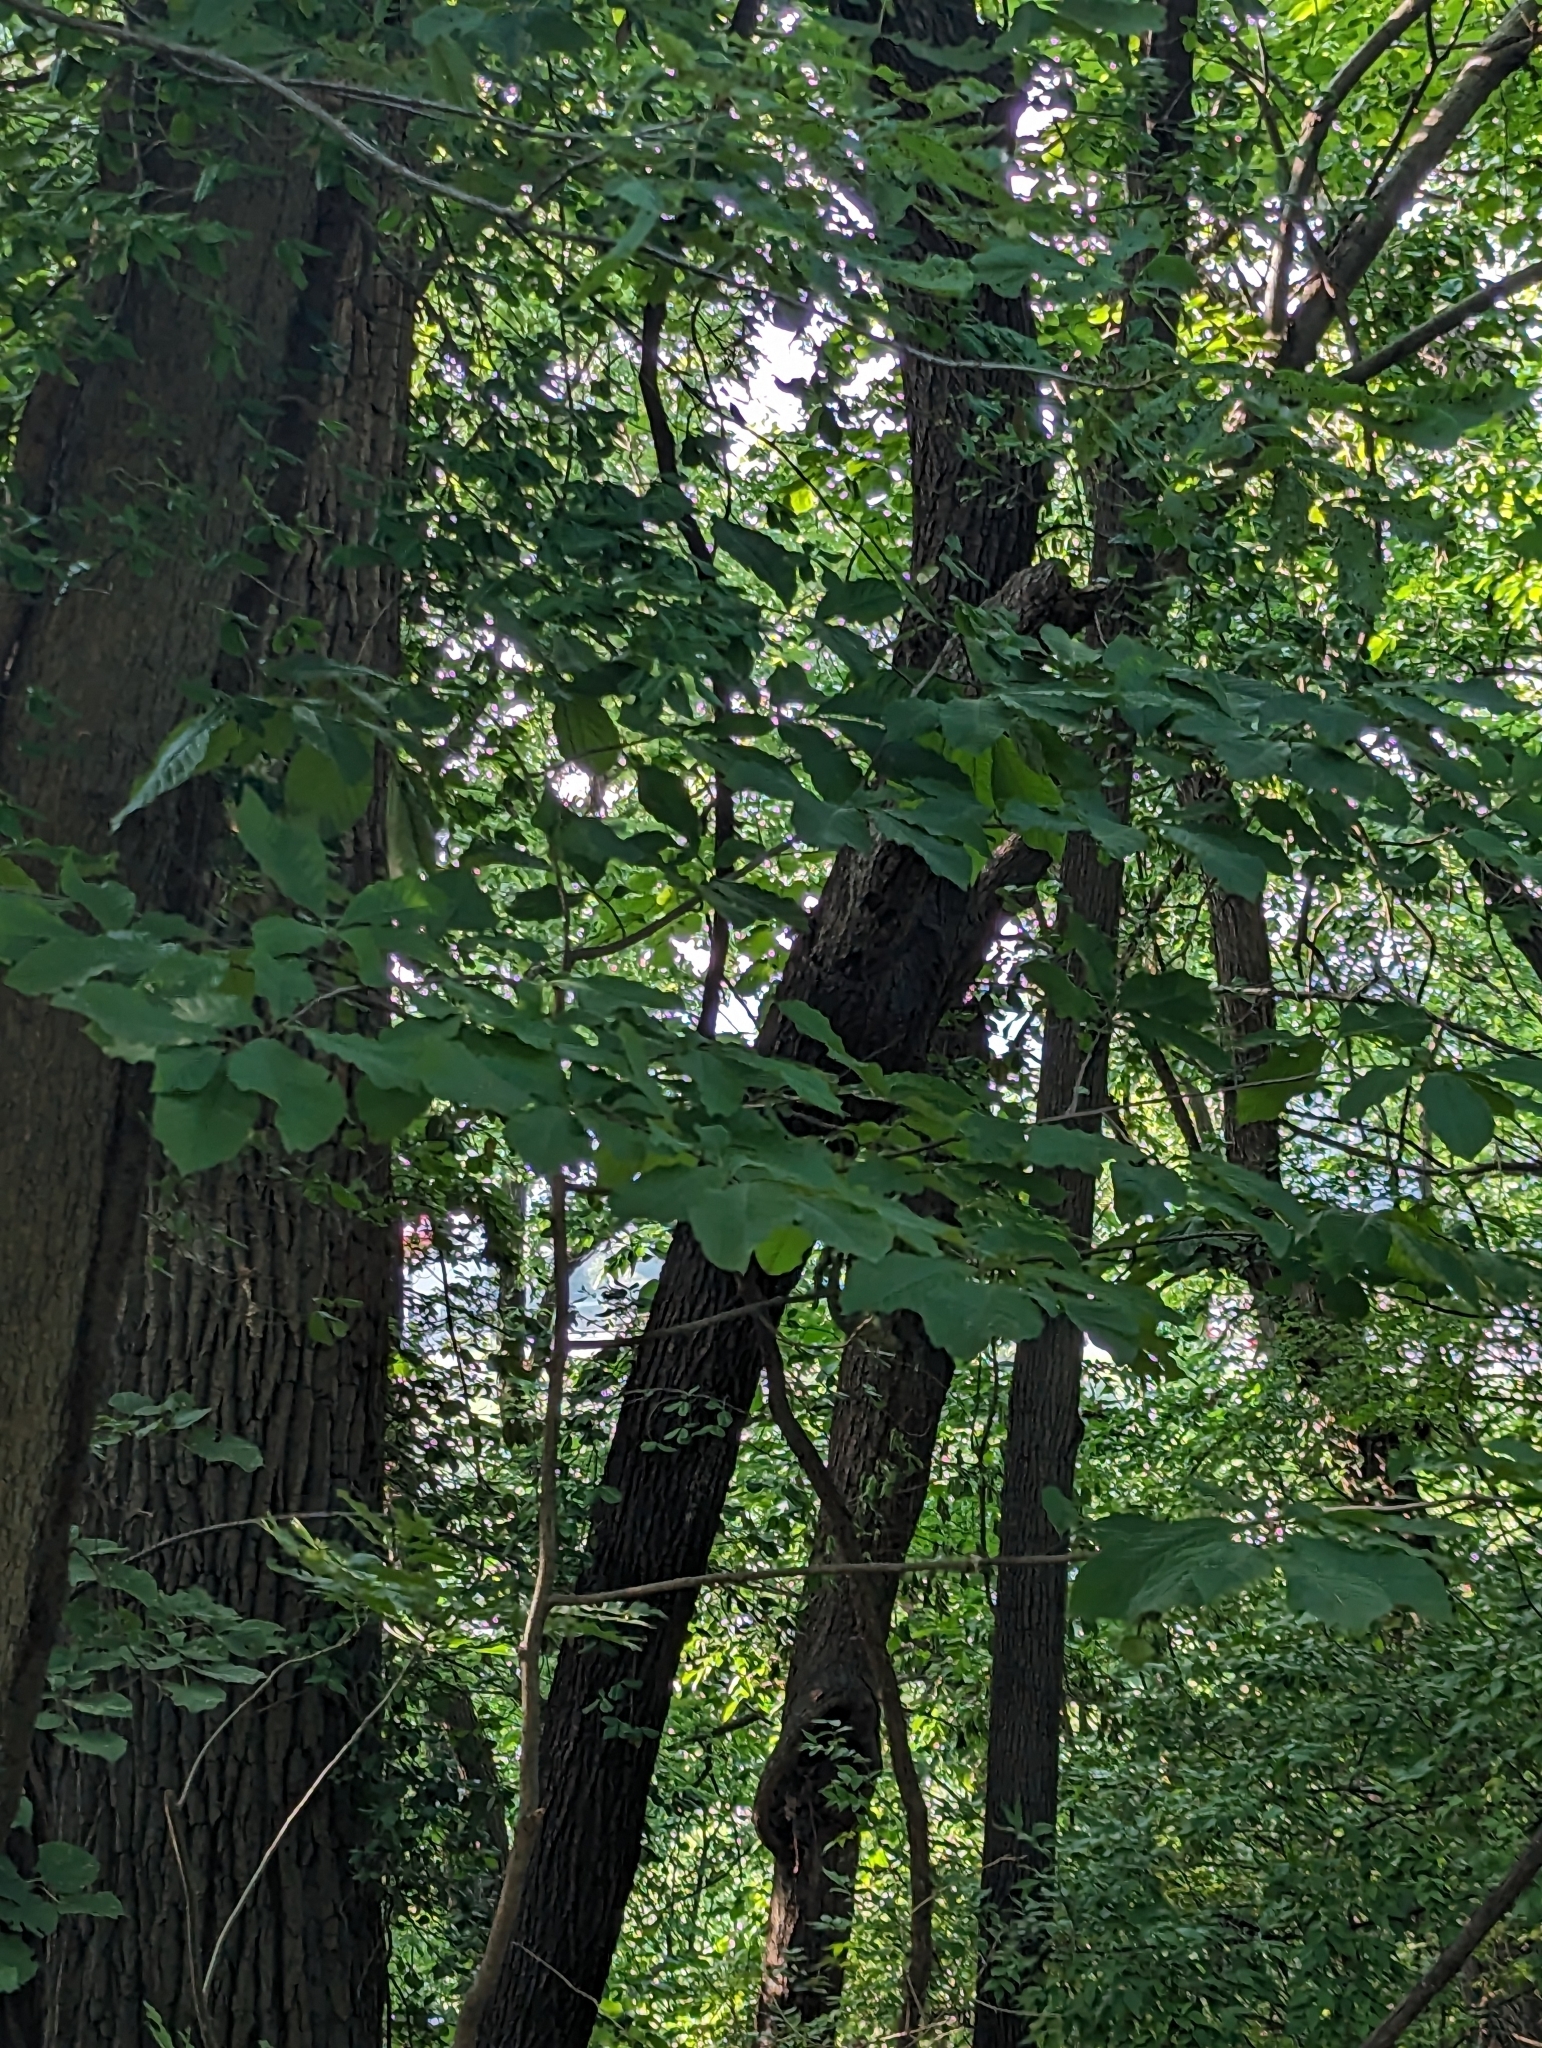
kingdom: Plantae
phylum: Tracheophyta
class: Magnoliopsida
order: Magnoliales
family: Annonaceae
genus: Asimina
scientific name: Asimina triloba
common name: Dog-banana
